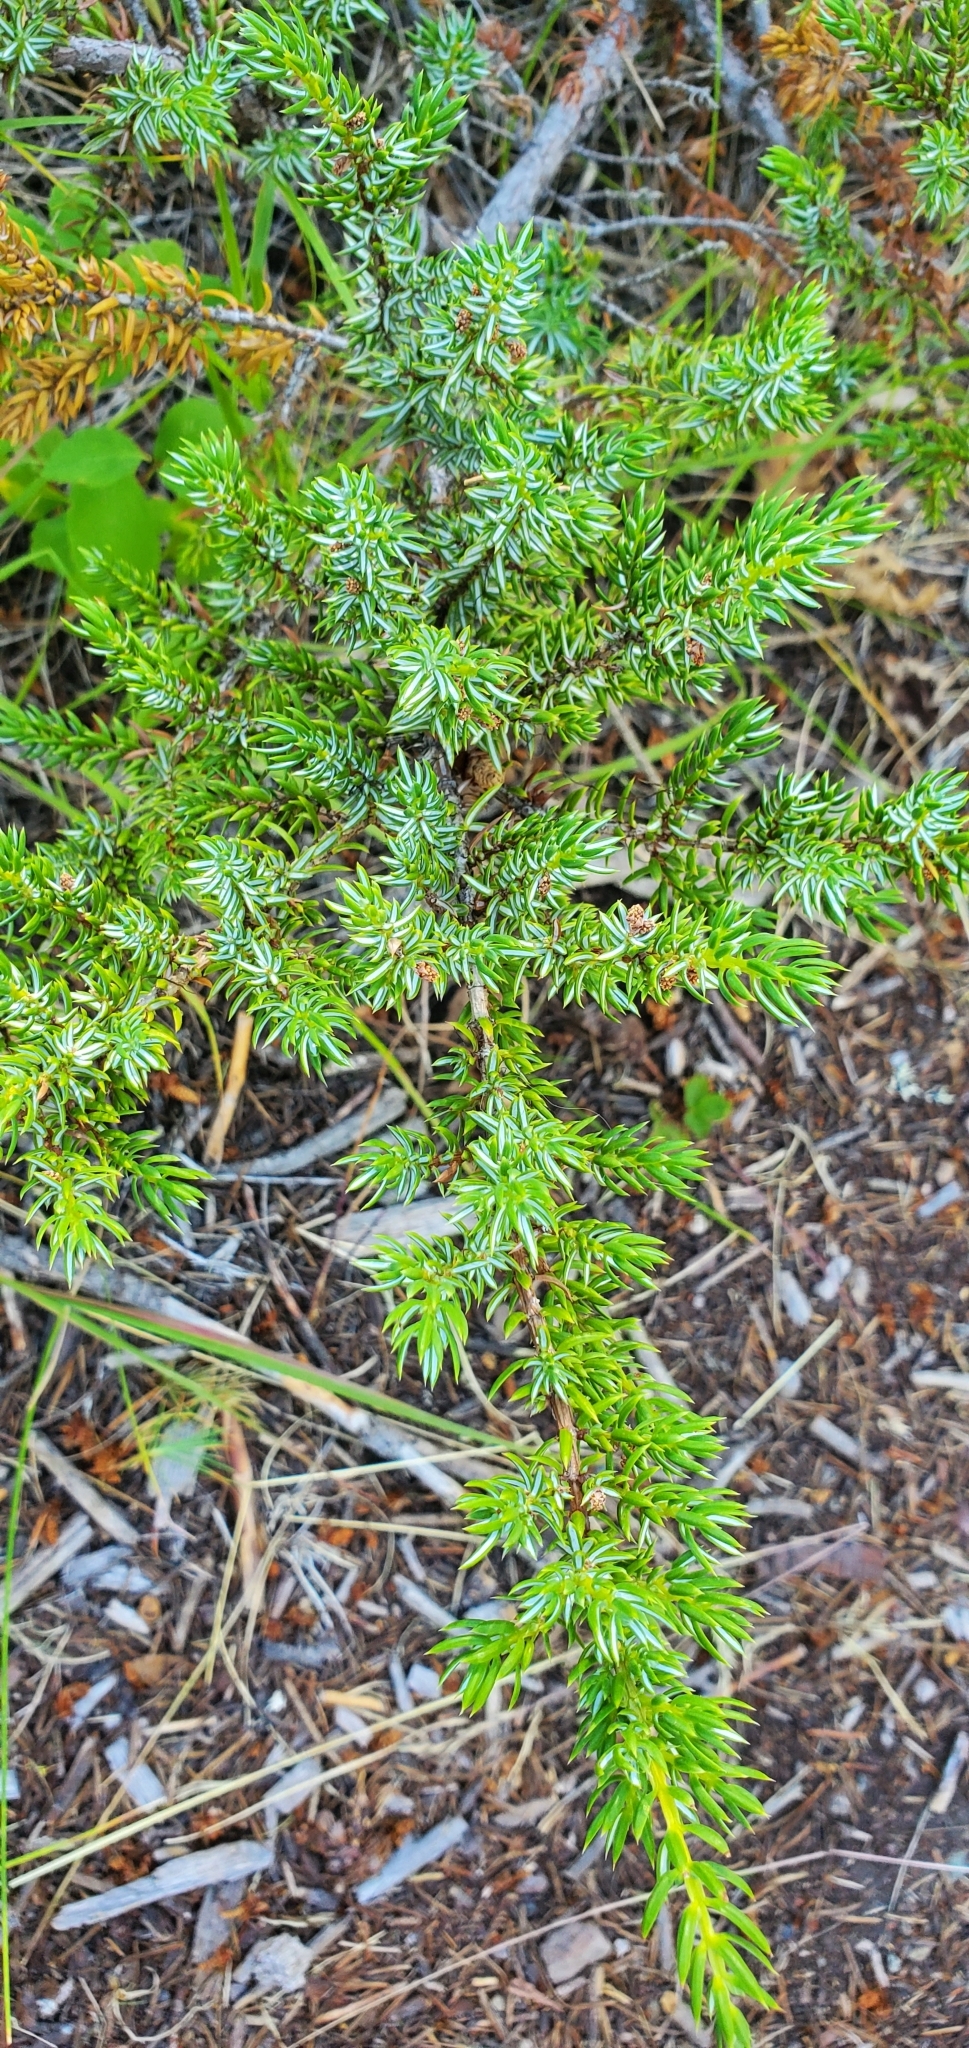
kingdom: Plantae
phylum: Tracheophyta
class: Pinopsida
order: Pinales
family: Cupressaceae
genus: Juniperus
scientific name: Juniperus communis
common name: Common juniper
